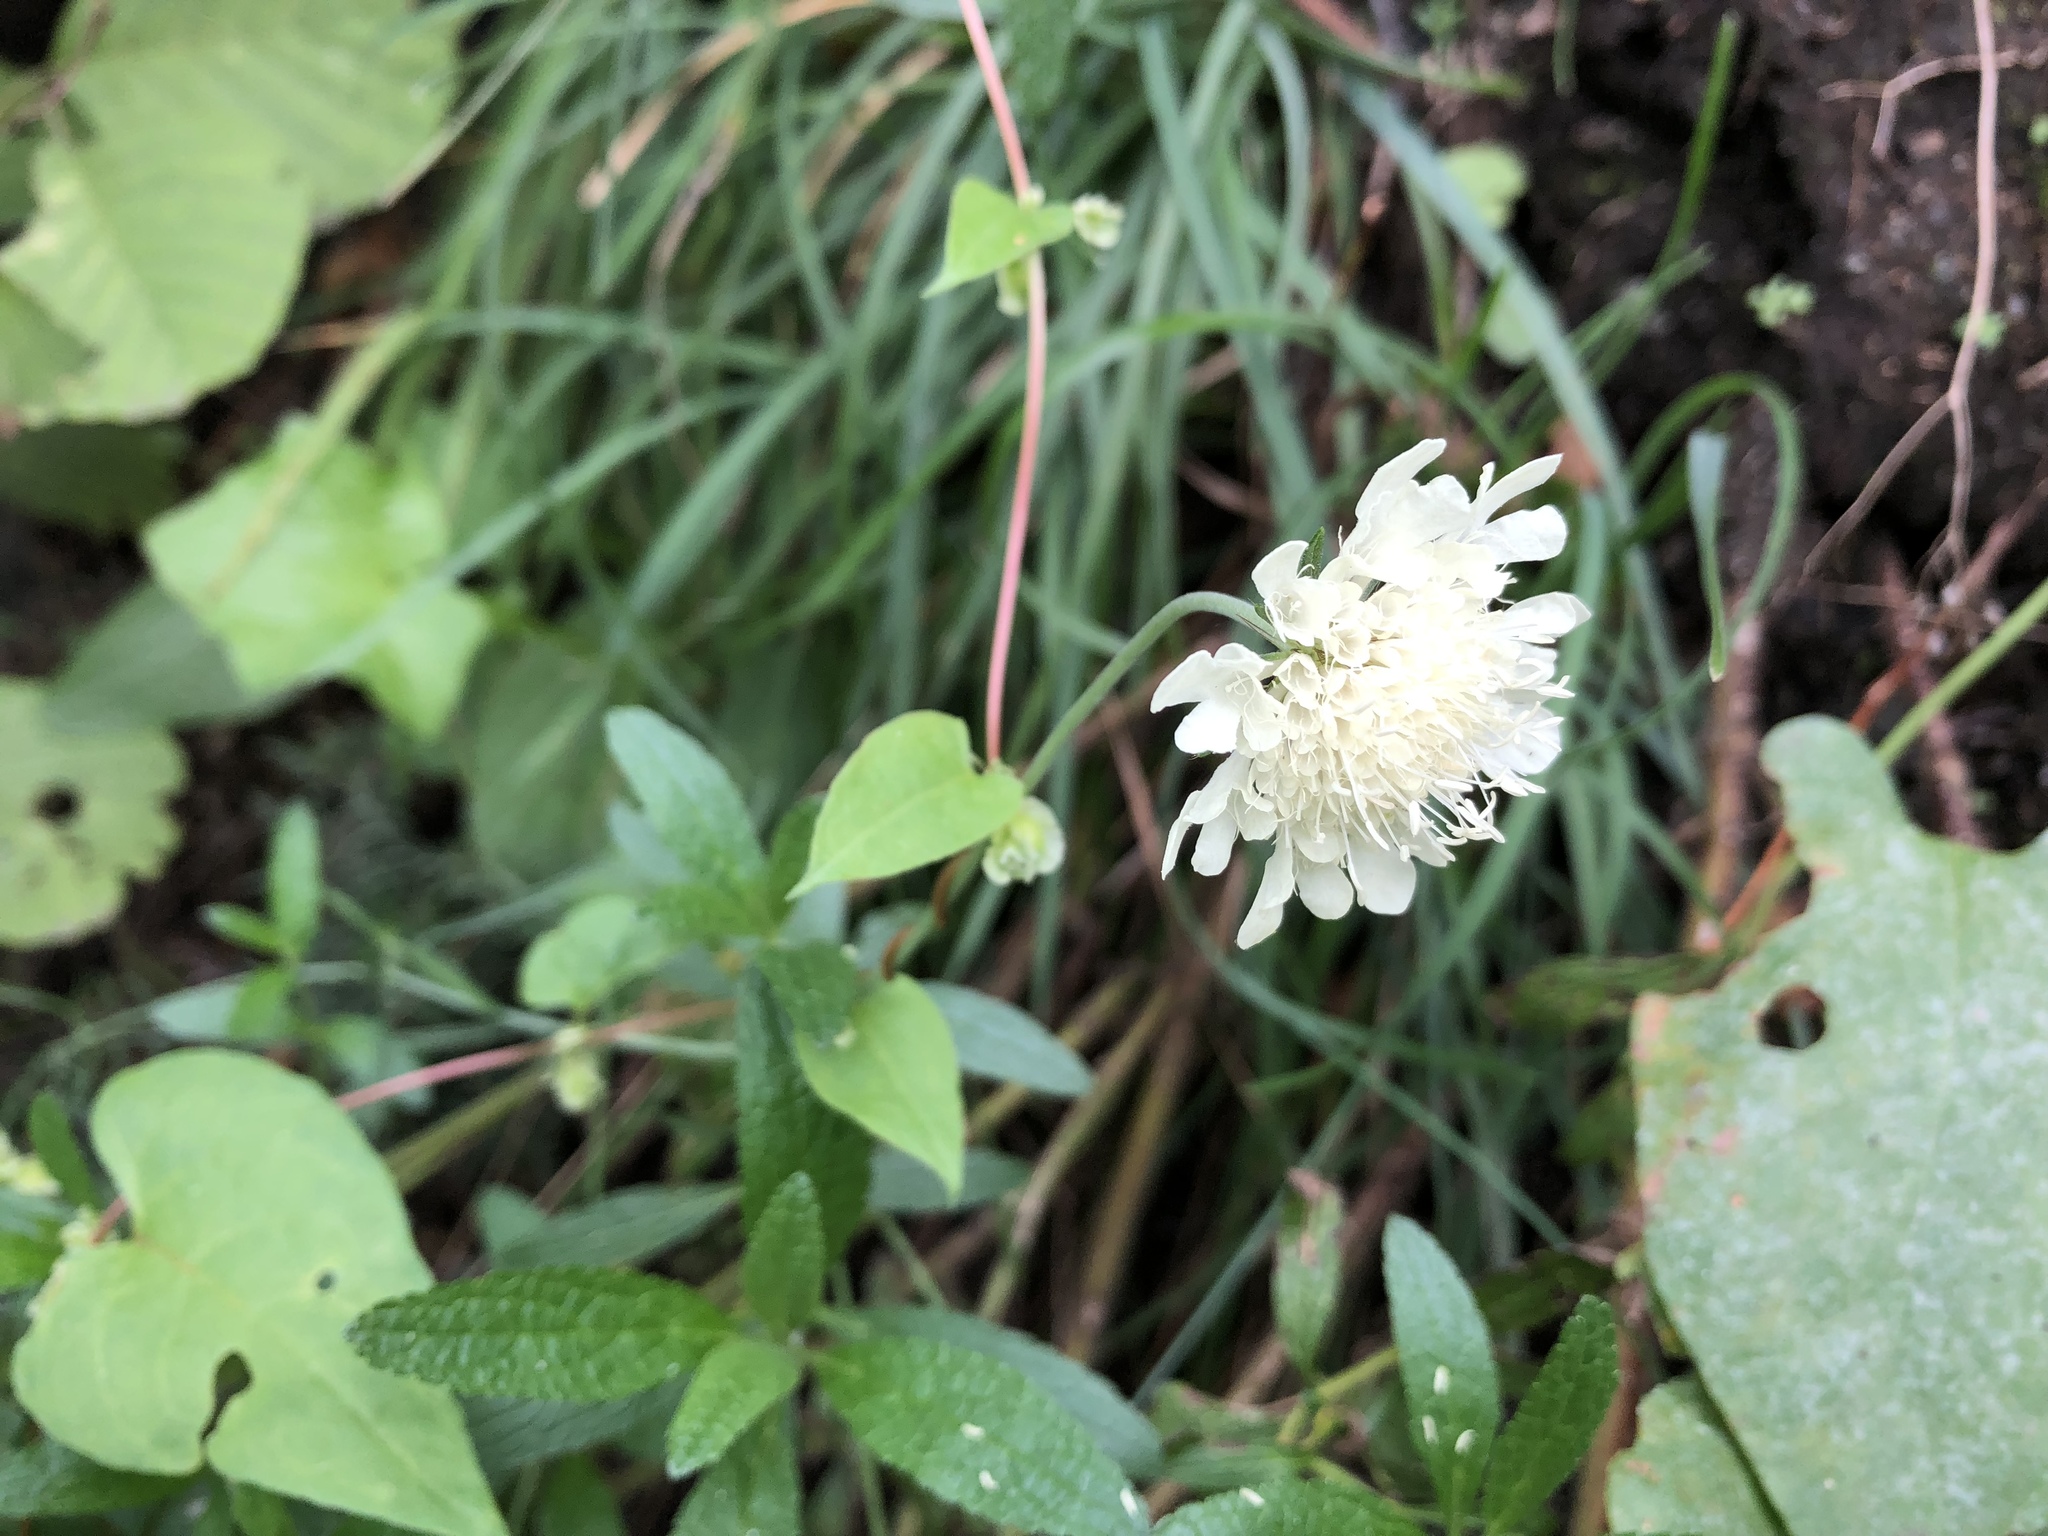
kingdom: Plantae
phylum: Tracheophyta
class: Magnoliopsida
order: Dipsacales
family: Caprifoliaceae
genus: Scabiosa
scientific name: Scabiosa ochroleuca
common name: Cream pincushions
